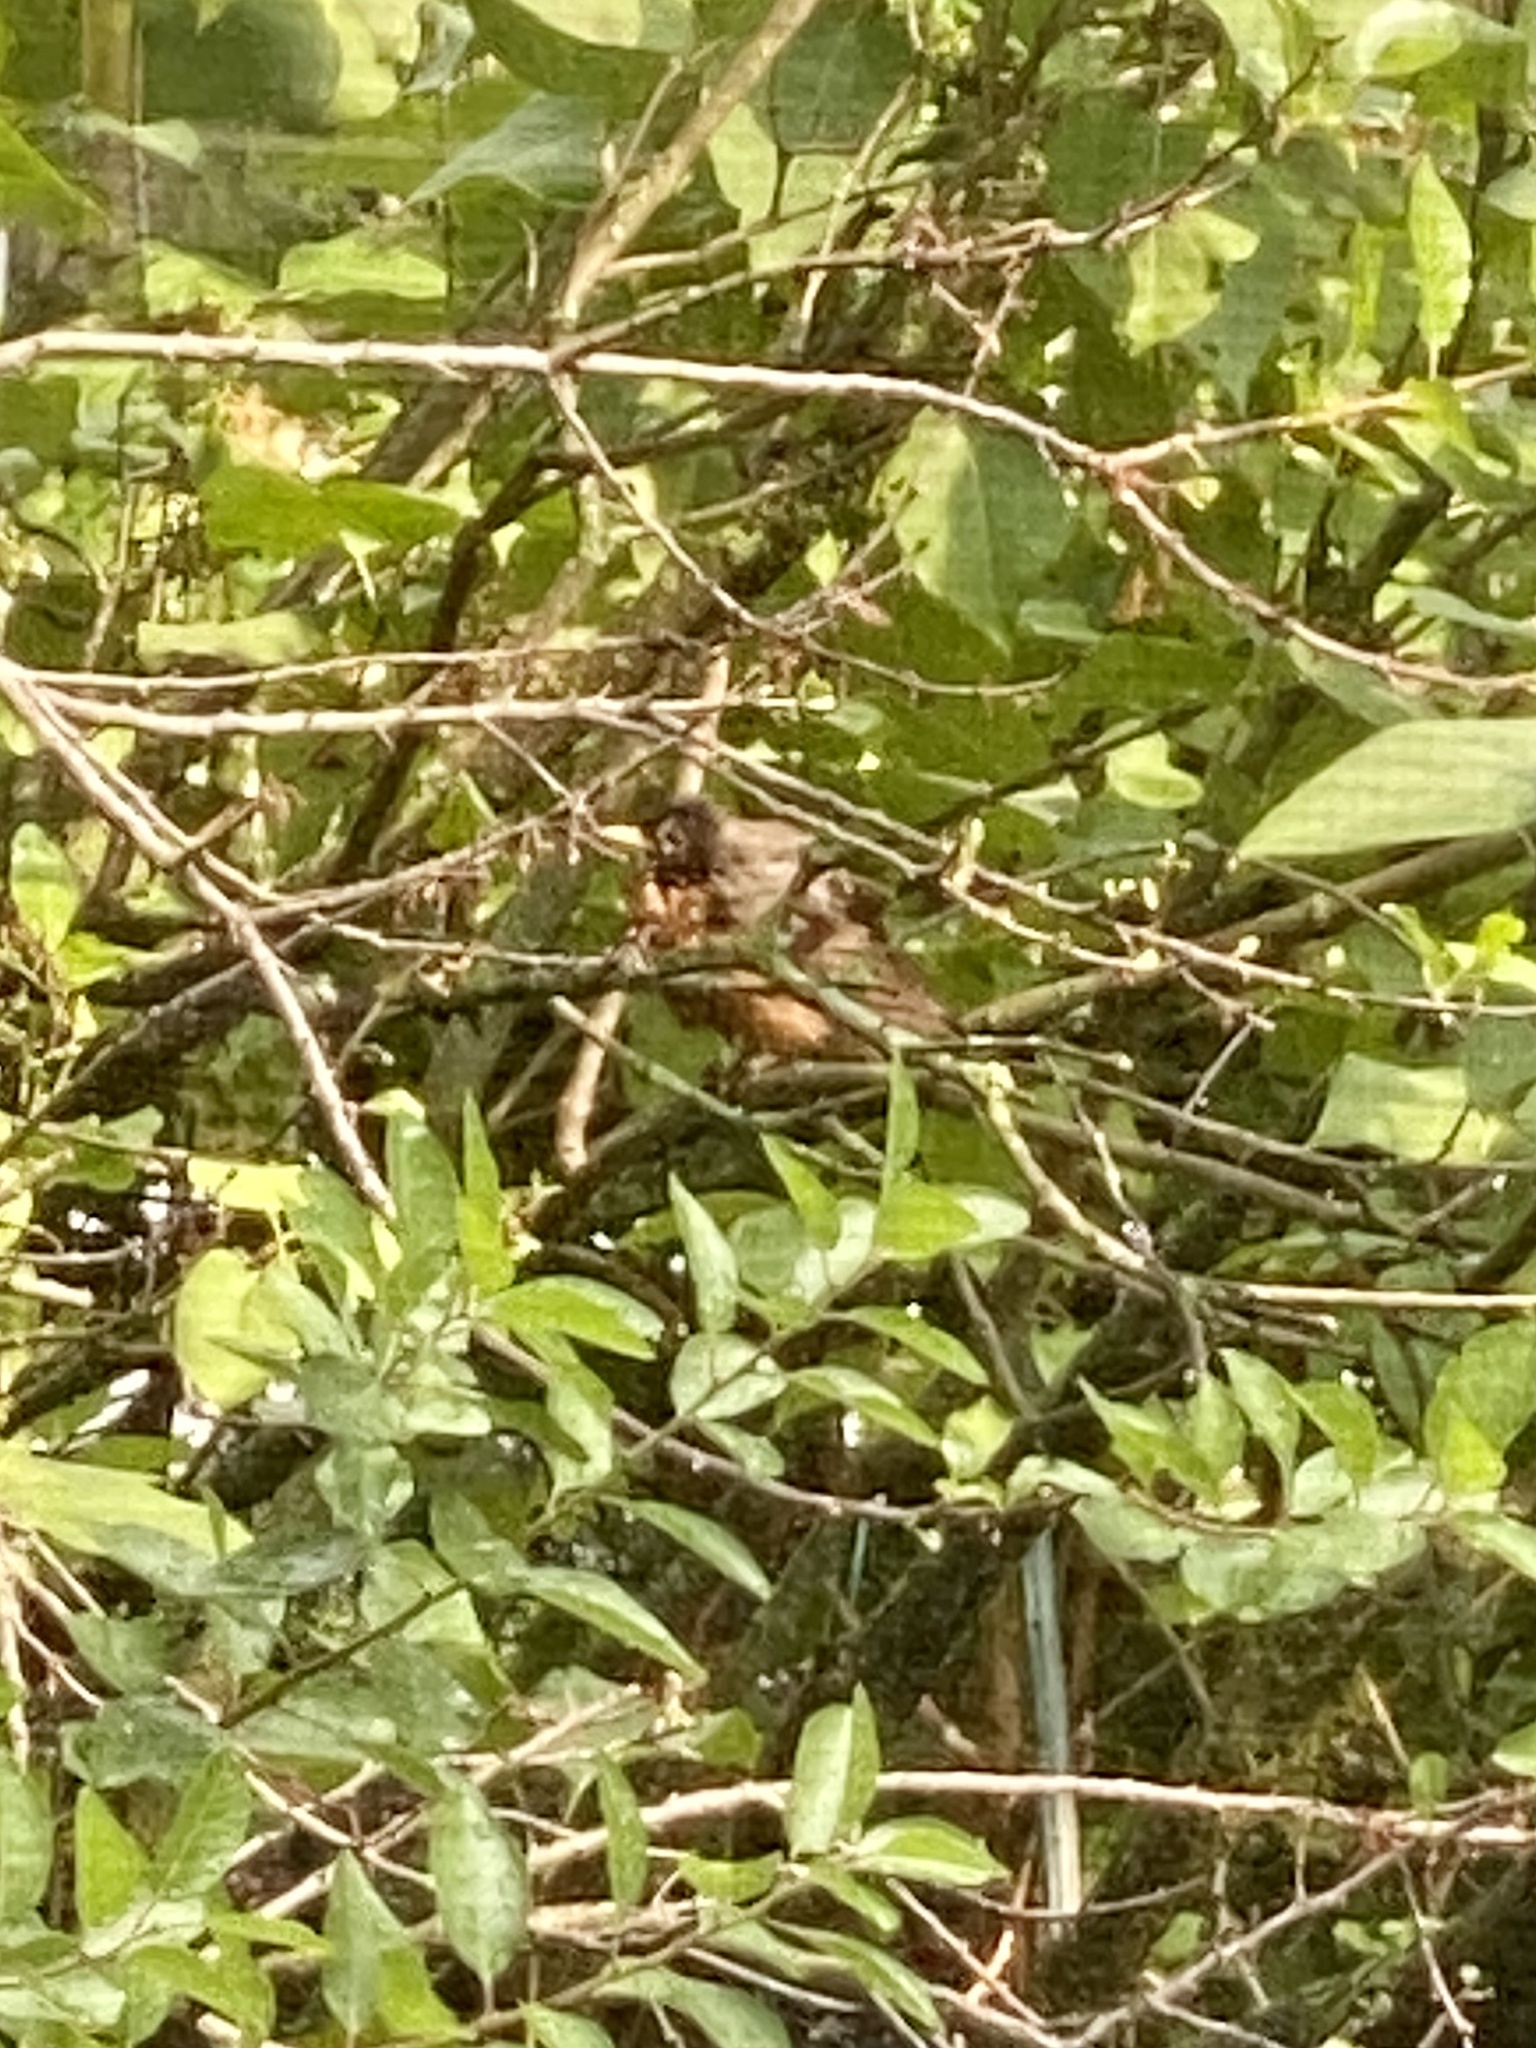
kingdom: Animalia
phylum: Chordata
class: Aves
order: Passeriformes
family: Turdidae
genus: Turdus
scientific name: Turdus migratorius
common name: American robin
